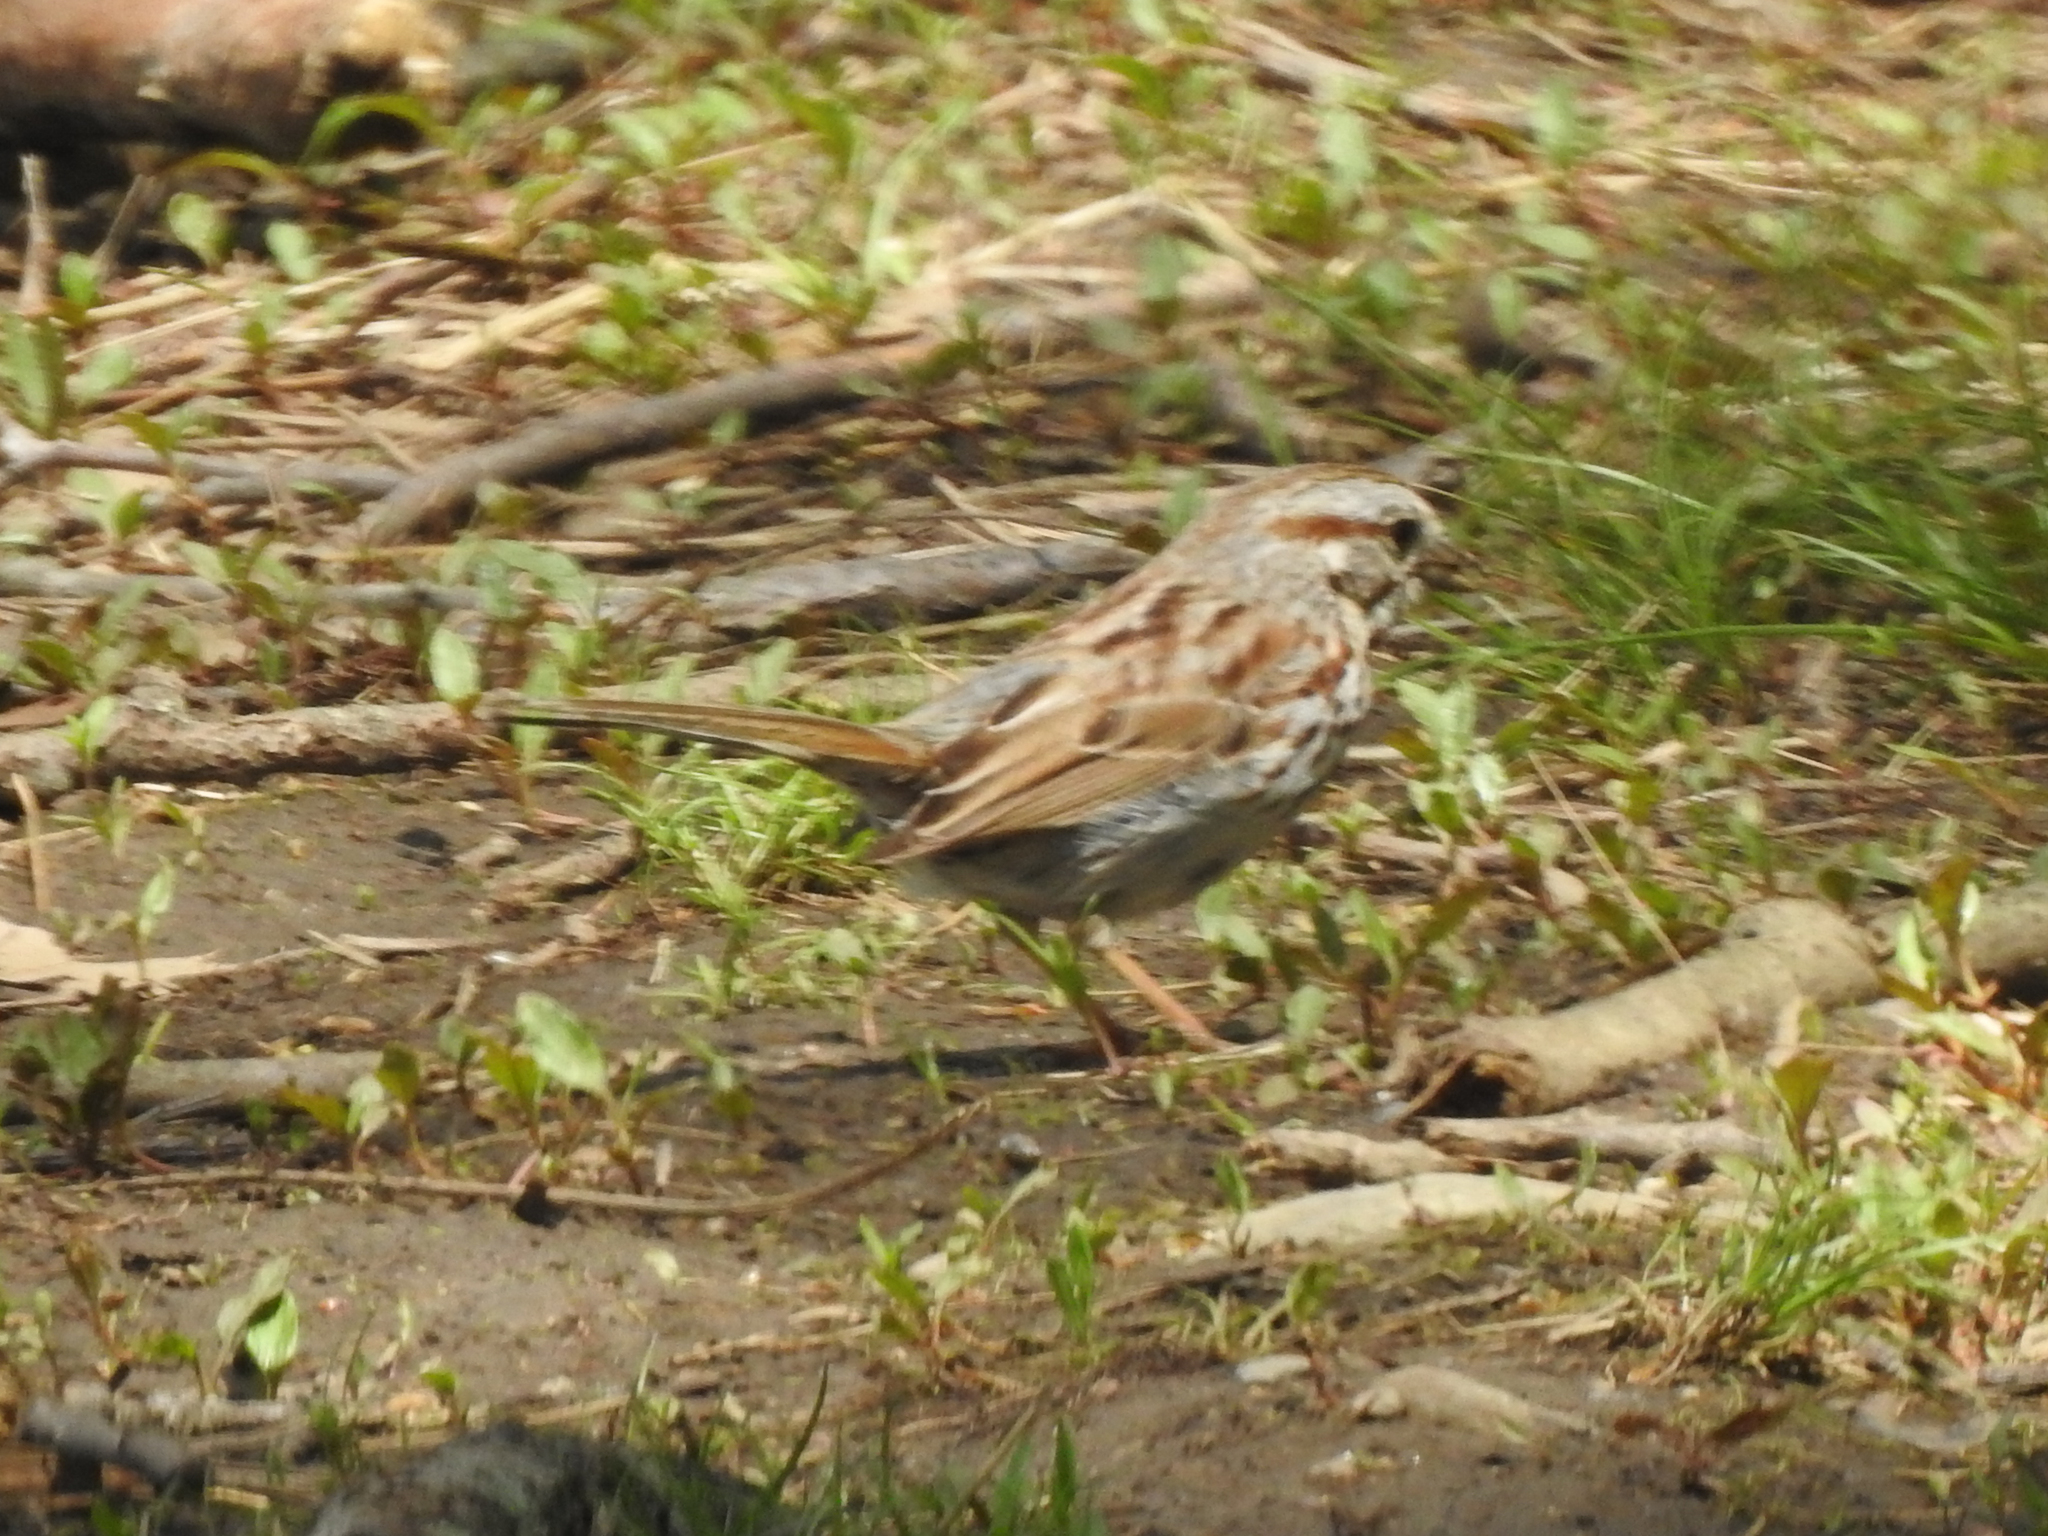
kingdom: Animalia
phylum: Chordata
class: Aves
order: Passeriformes
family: Passerellidae
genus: Melospiza
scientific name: Melospiza melodia
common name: Song sparrow
